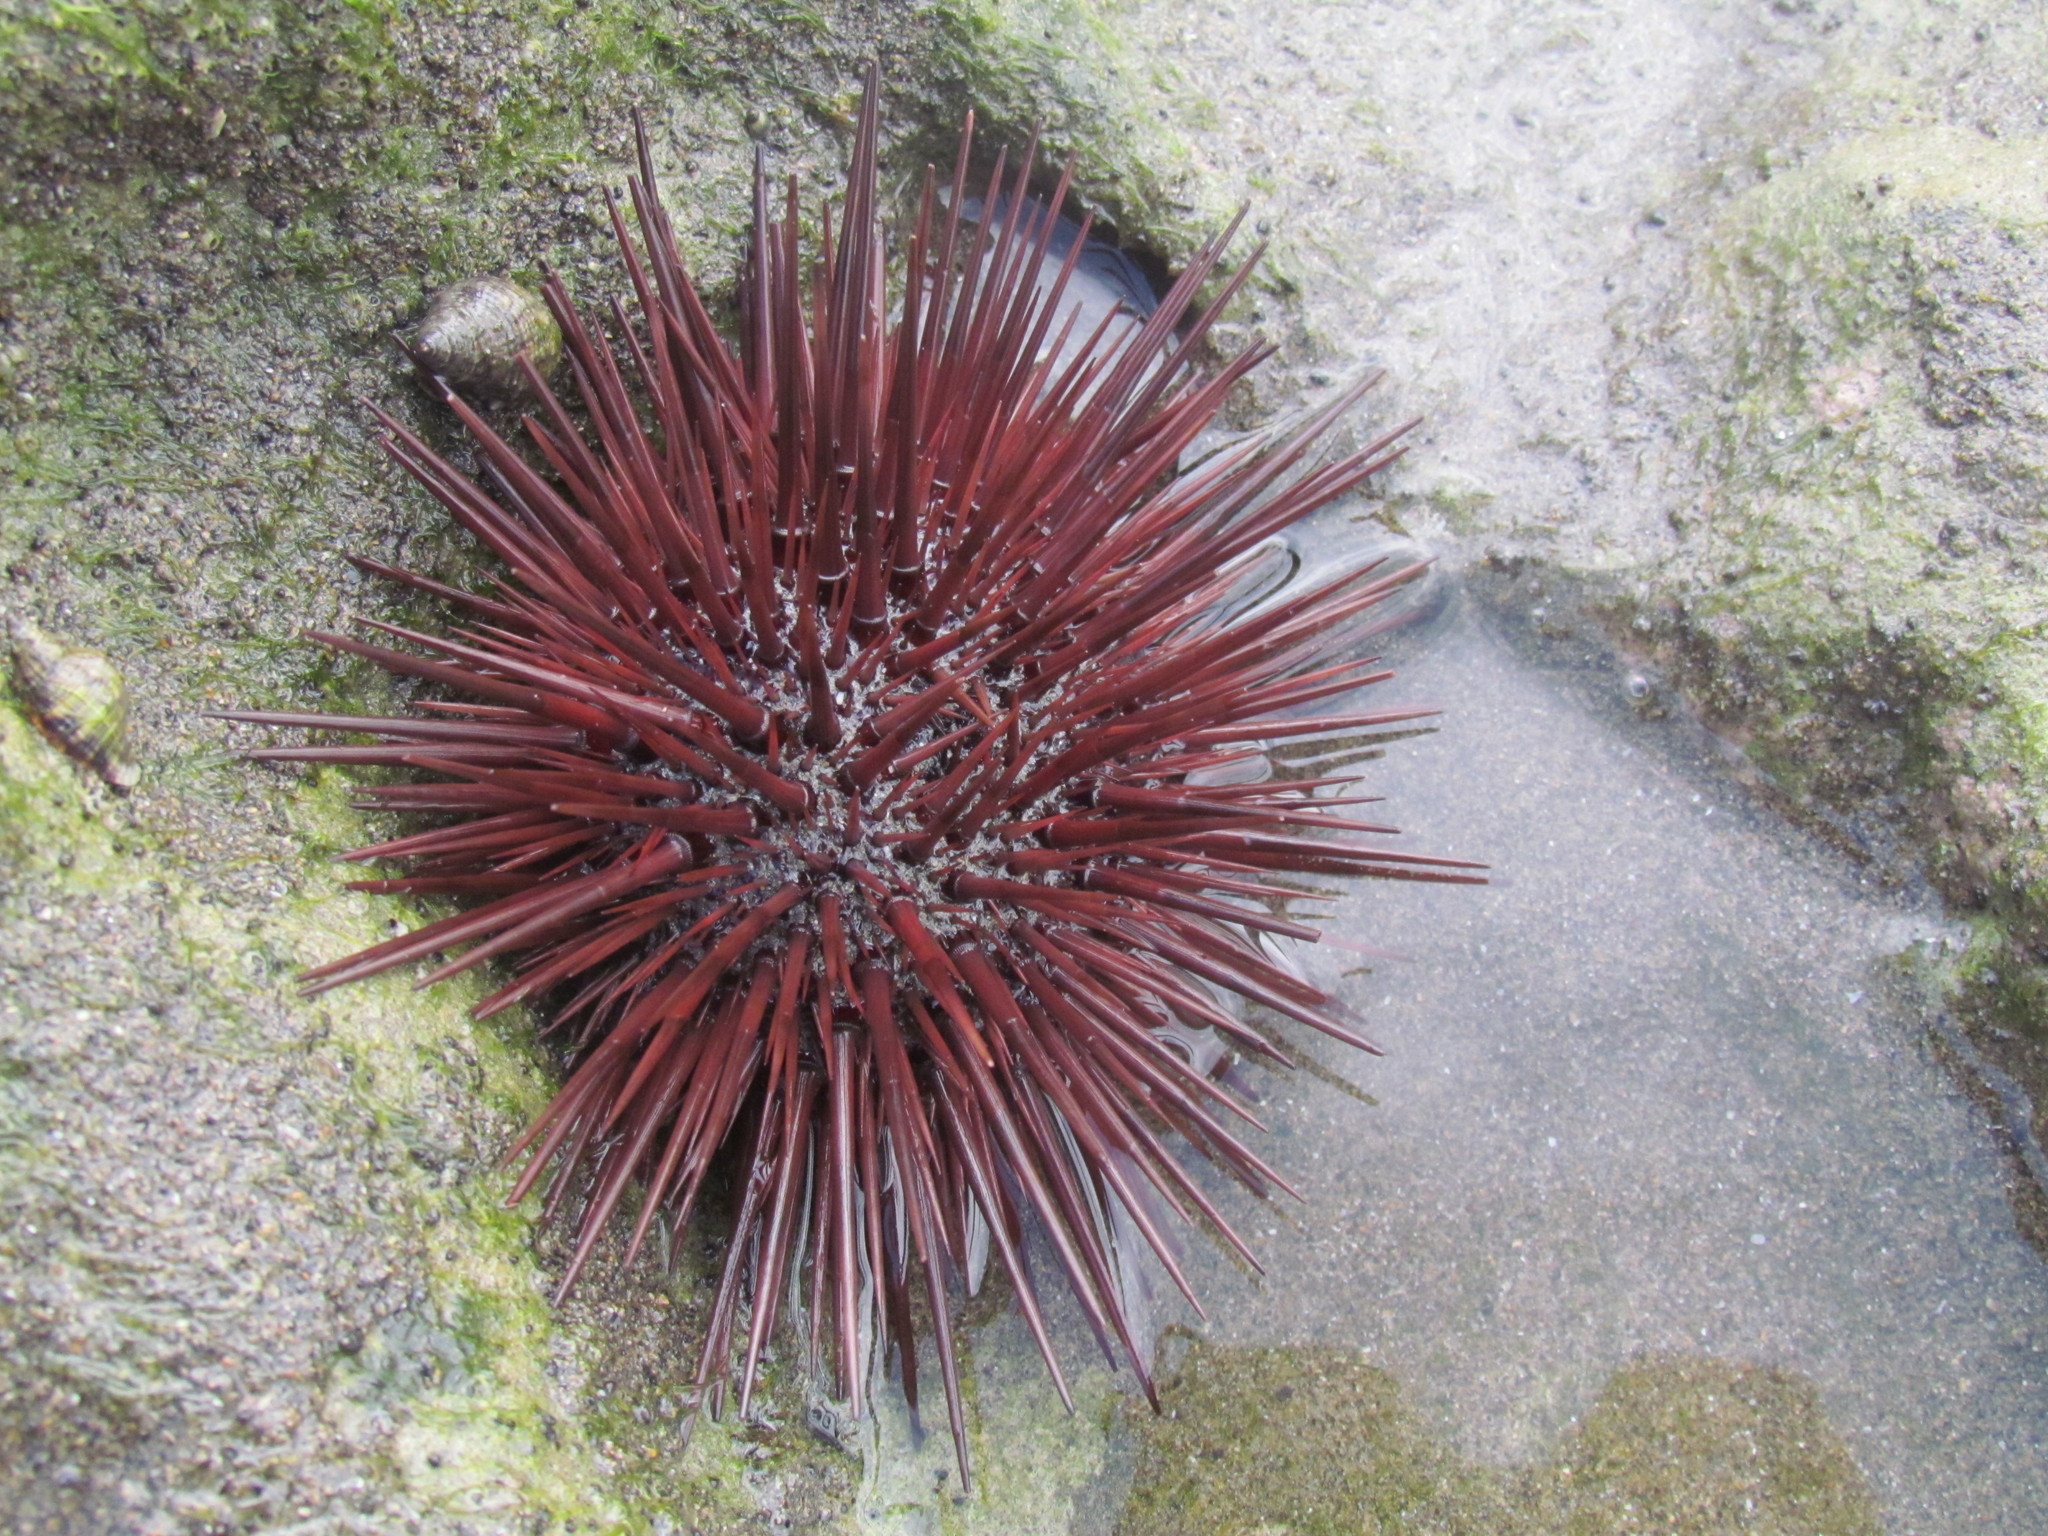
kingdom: Animalia
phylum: Echinodermata
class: Echinoidea
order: Camarodonta
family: Echinometridae
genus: Echinometra
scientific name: Echinometra lucunter
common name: Rock urchin
